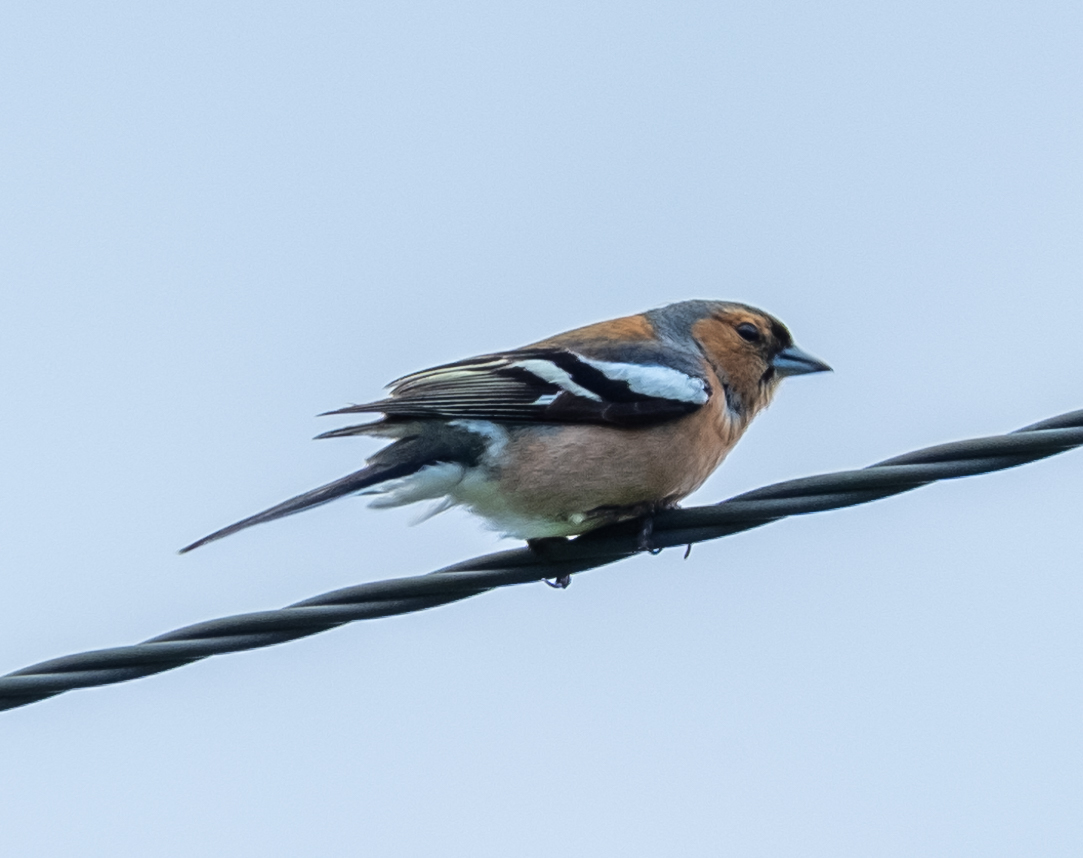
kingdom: Animalia
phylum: Chordata
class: Aves
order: Passeriformes
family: Fringillidae
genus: Fringilla
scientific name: Fringilla coelebs
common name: Common chaffinch
